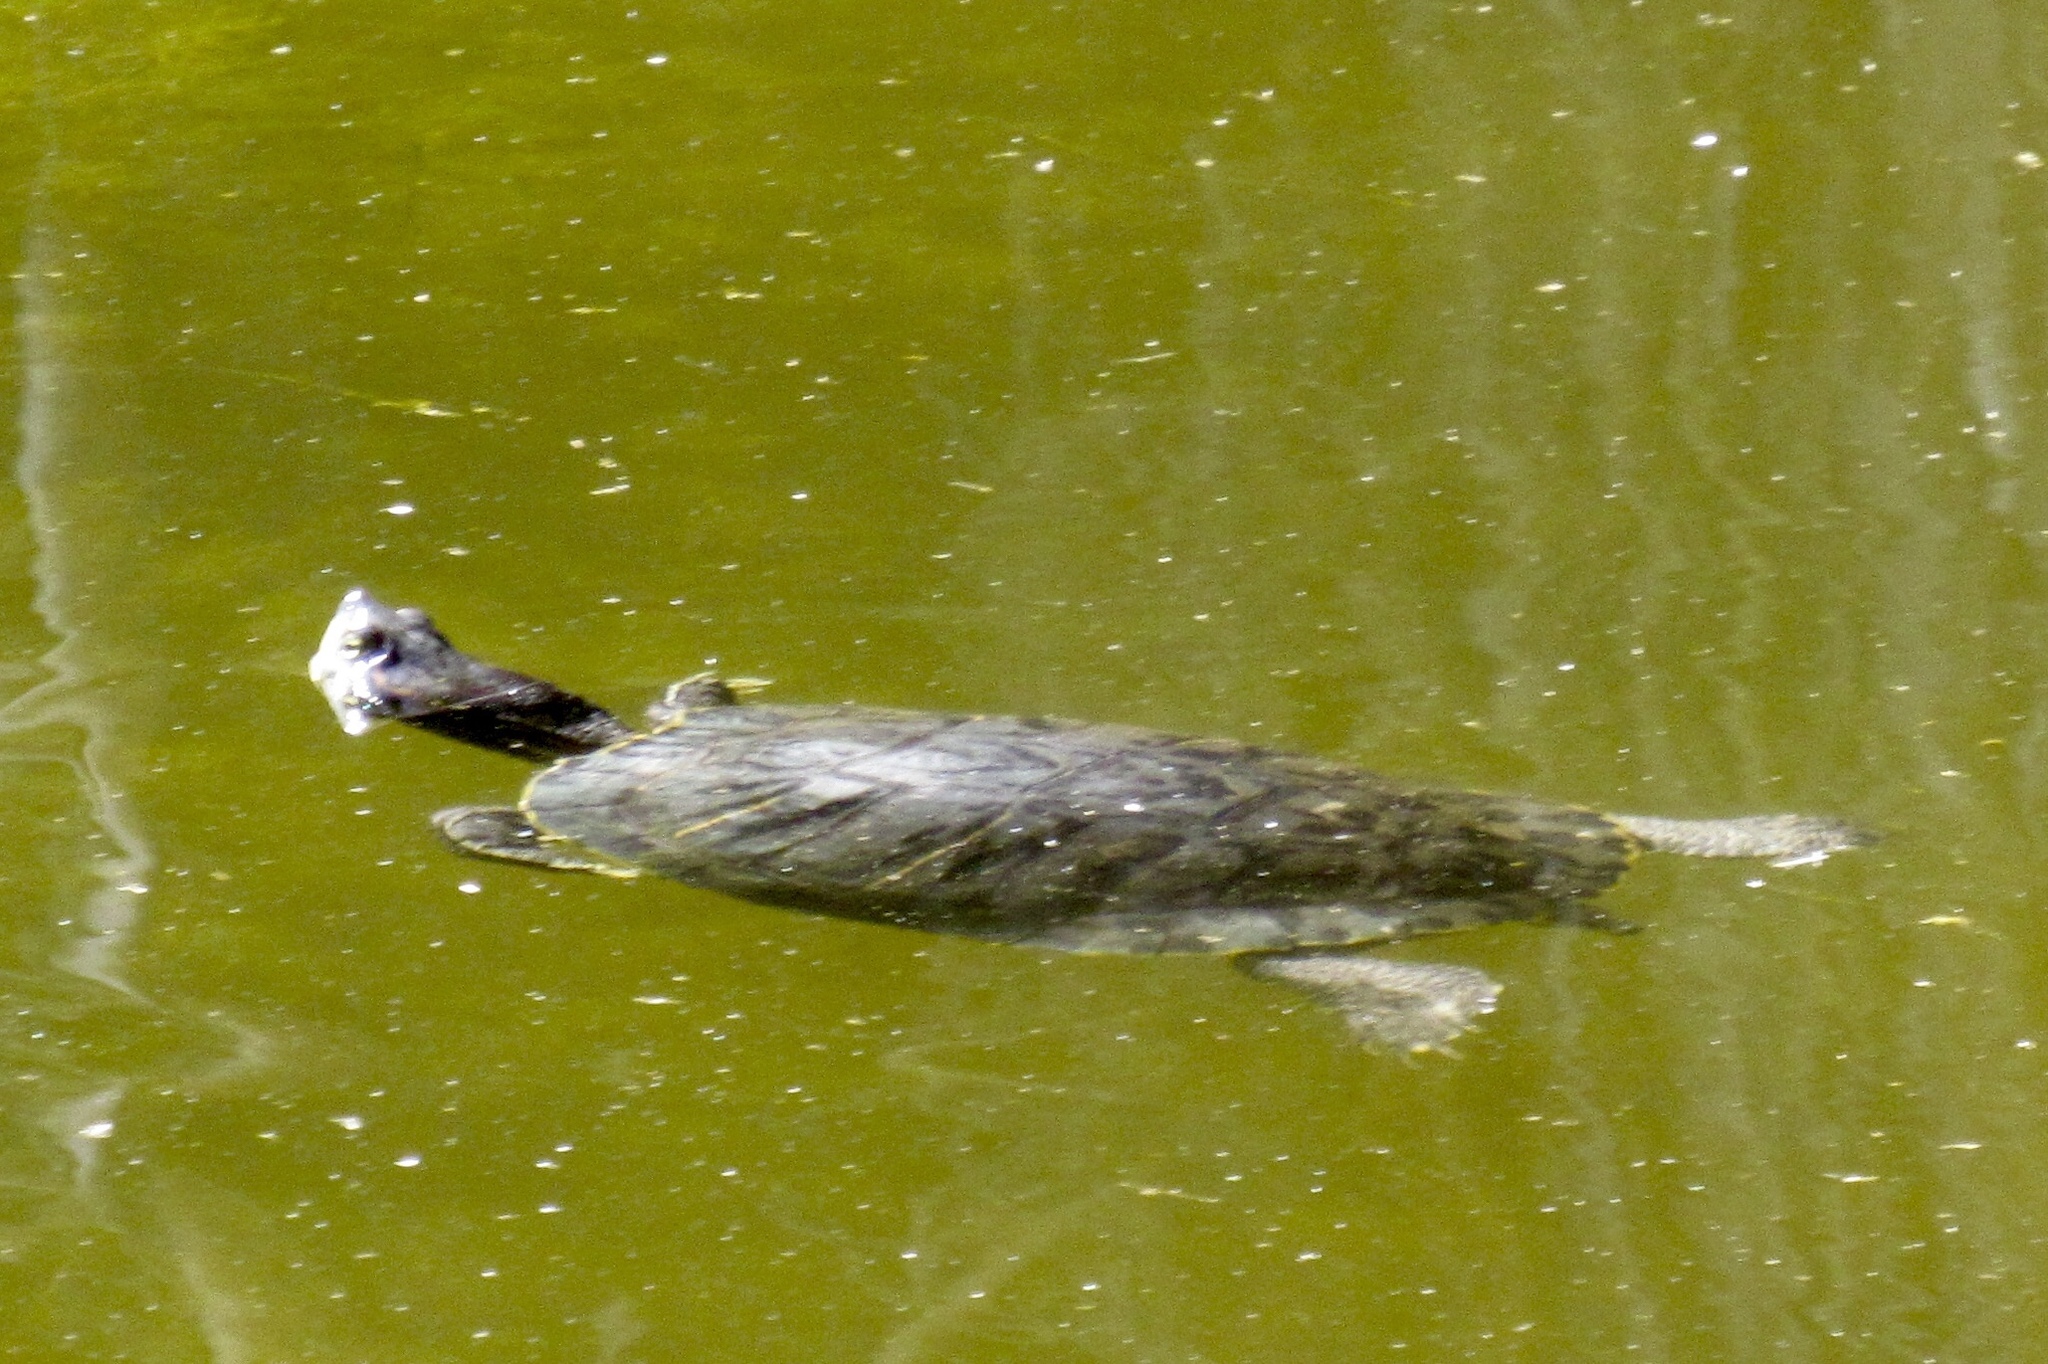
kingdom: Animalia
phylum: Chordata
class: Testudines
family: Emydidae
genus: Trachemys
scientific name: Trachemys scripta
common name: Slider
